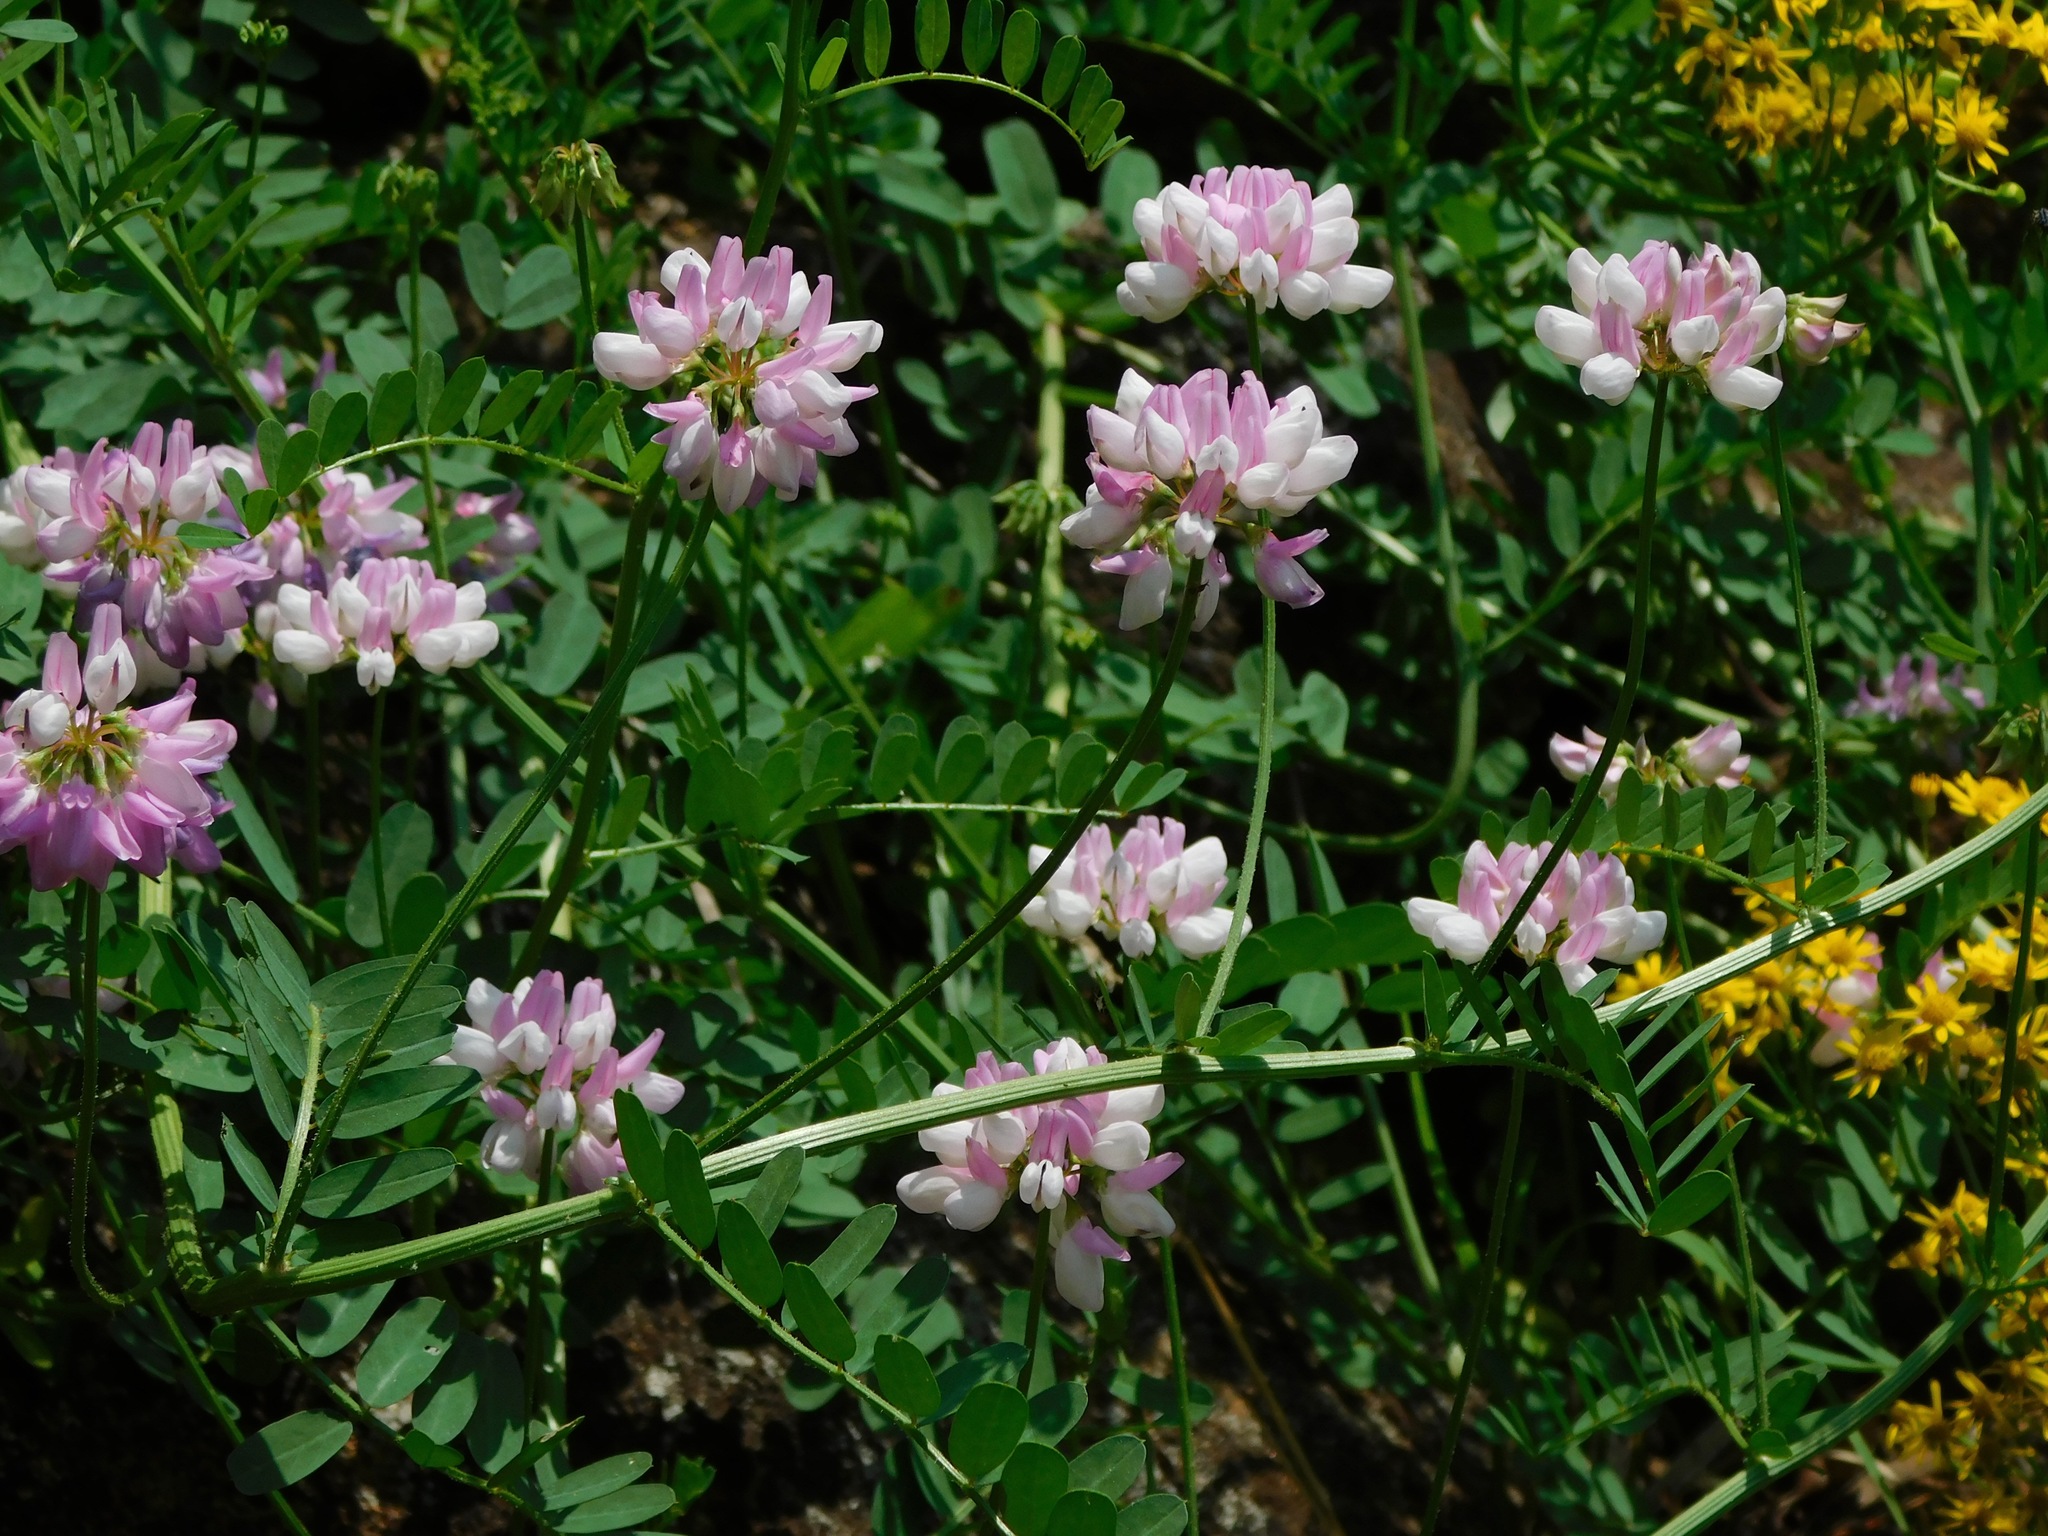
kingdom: Plantae
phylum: Tracheophyta
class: Magnoliopsida
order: Fabales
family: Fabaceae
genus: Coronilla
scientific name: Coronilla varia
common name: Crownvetch
